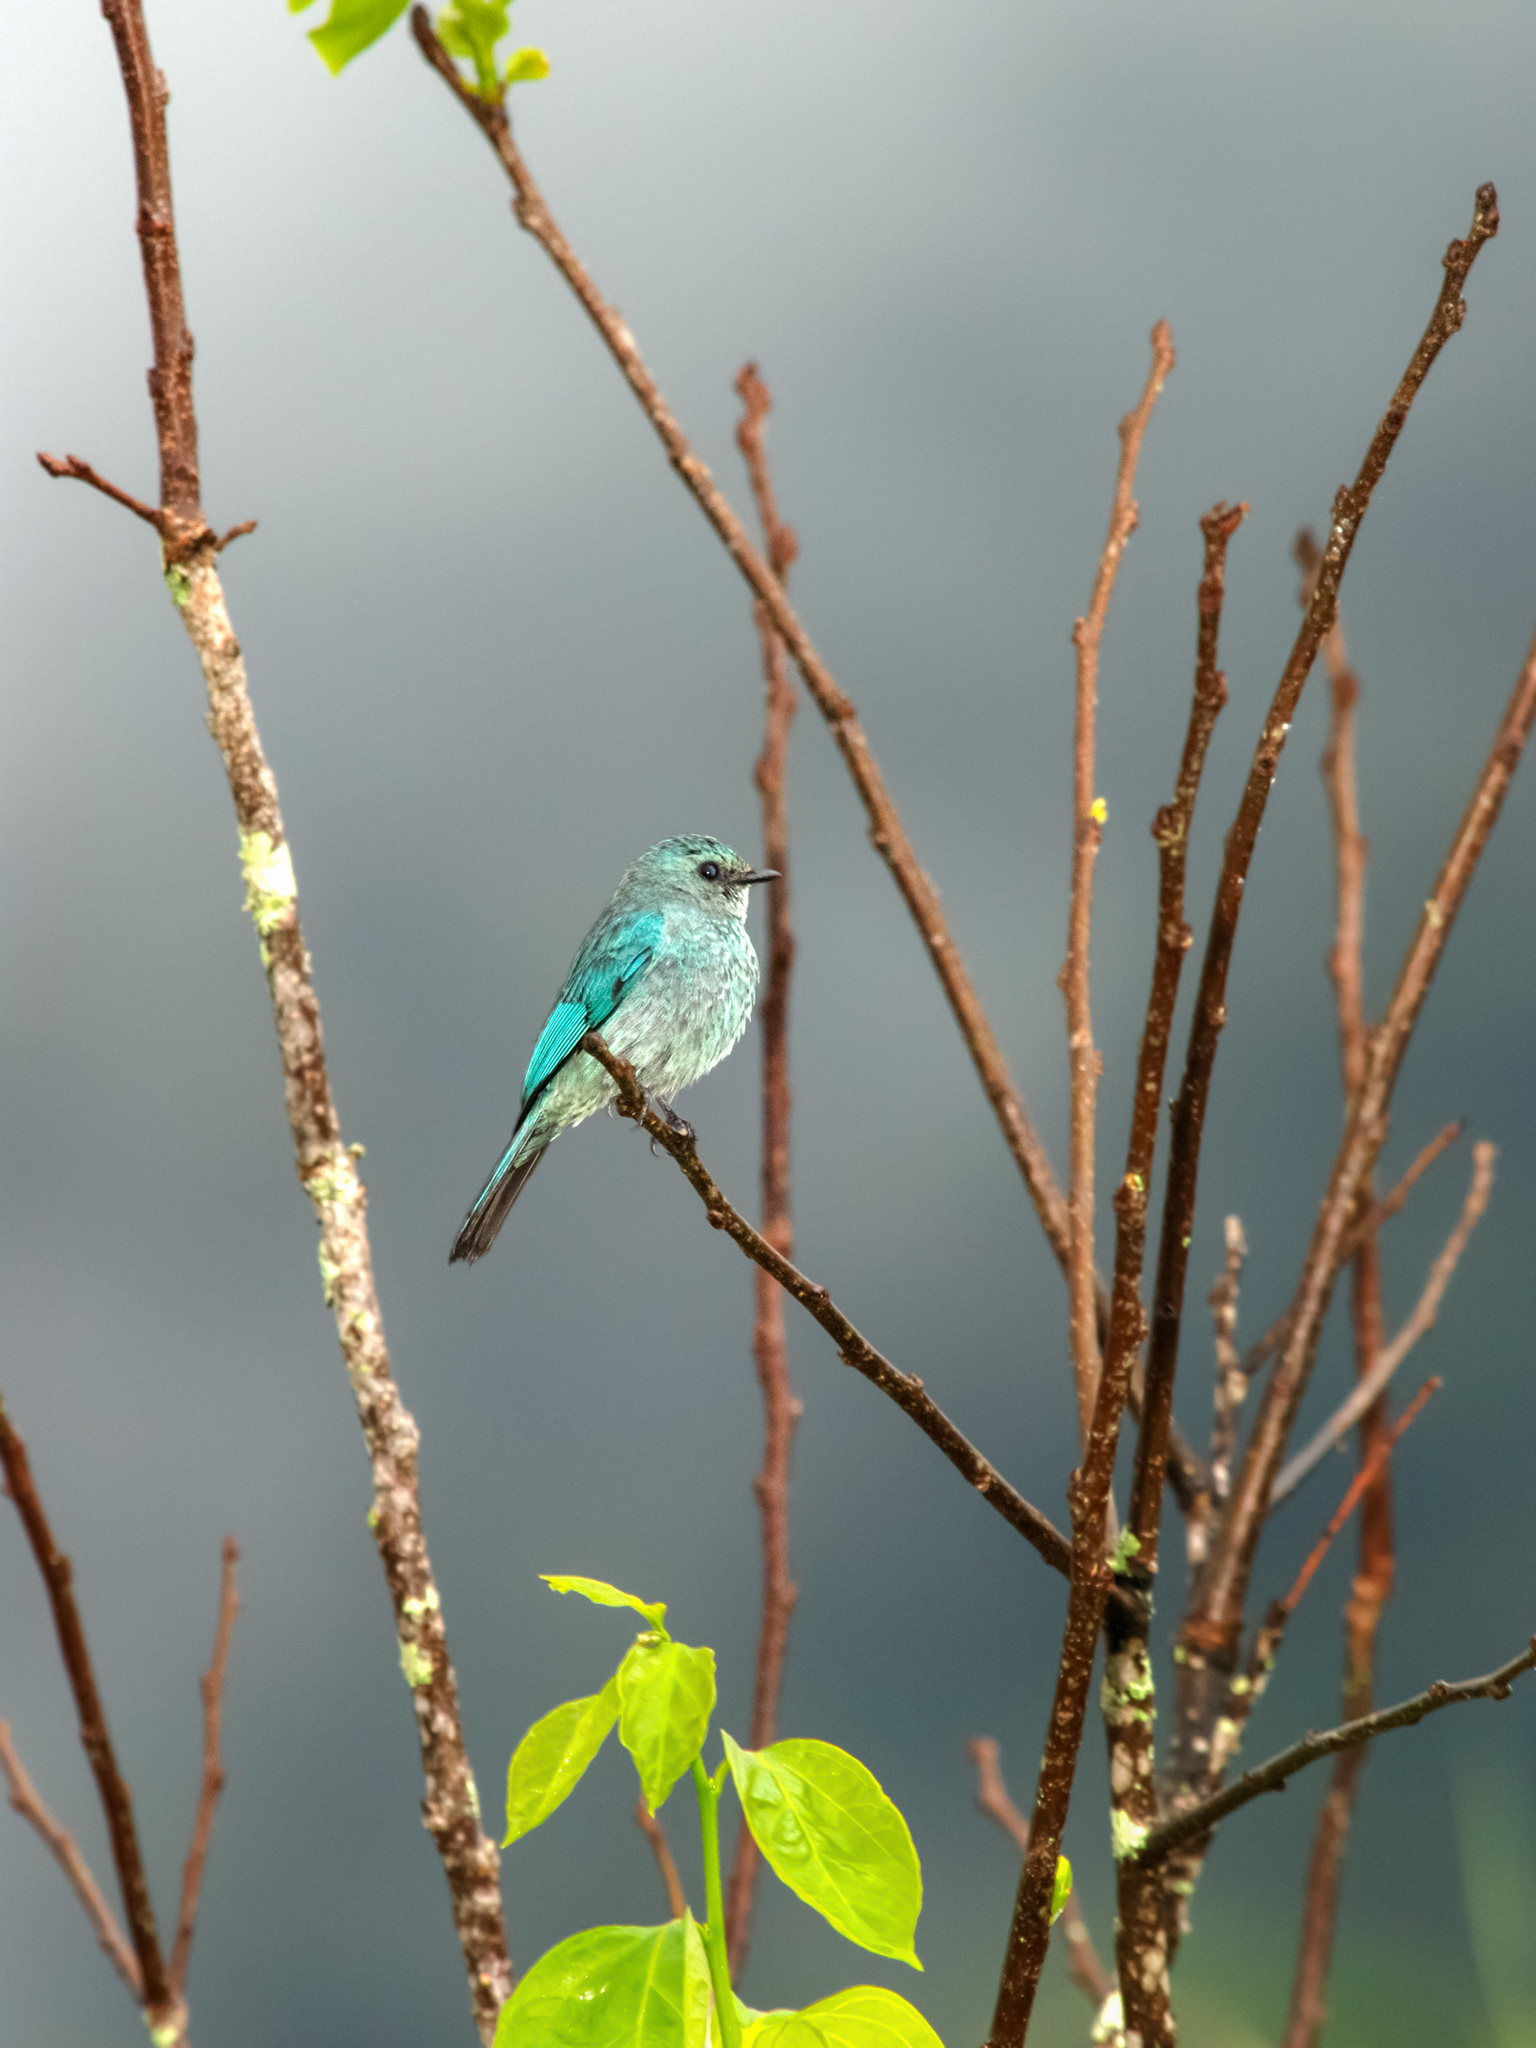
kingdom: Animalia
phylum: Chordata
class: Aves
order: Passeriformes
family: Muscicapidae
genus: Eumyias
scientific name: Eumyias thalassinus
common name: Verditer flycatcher
